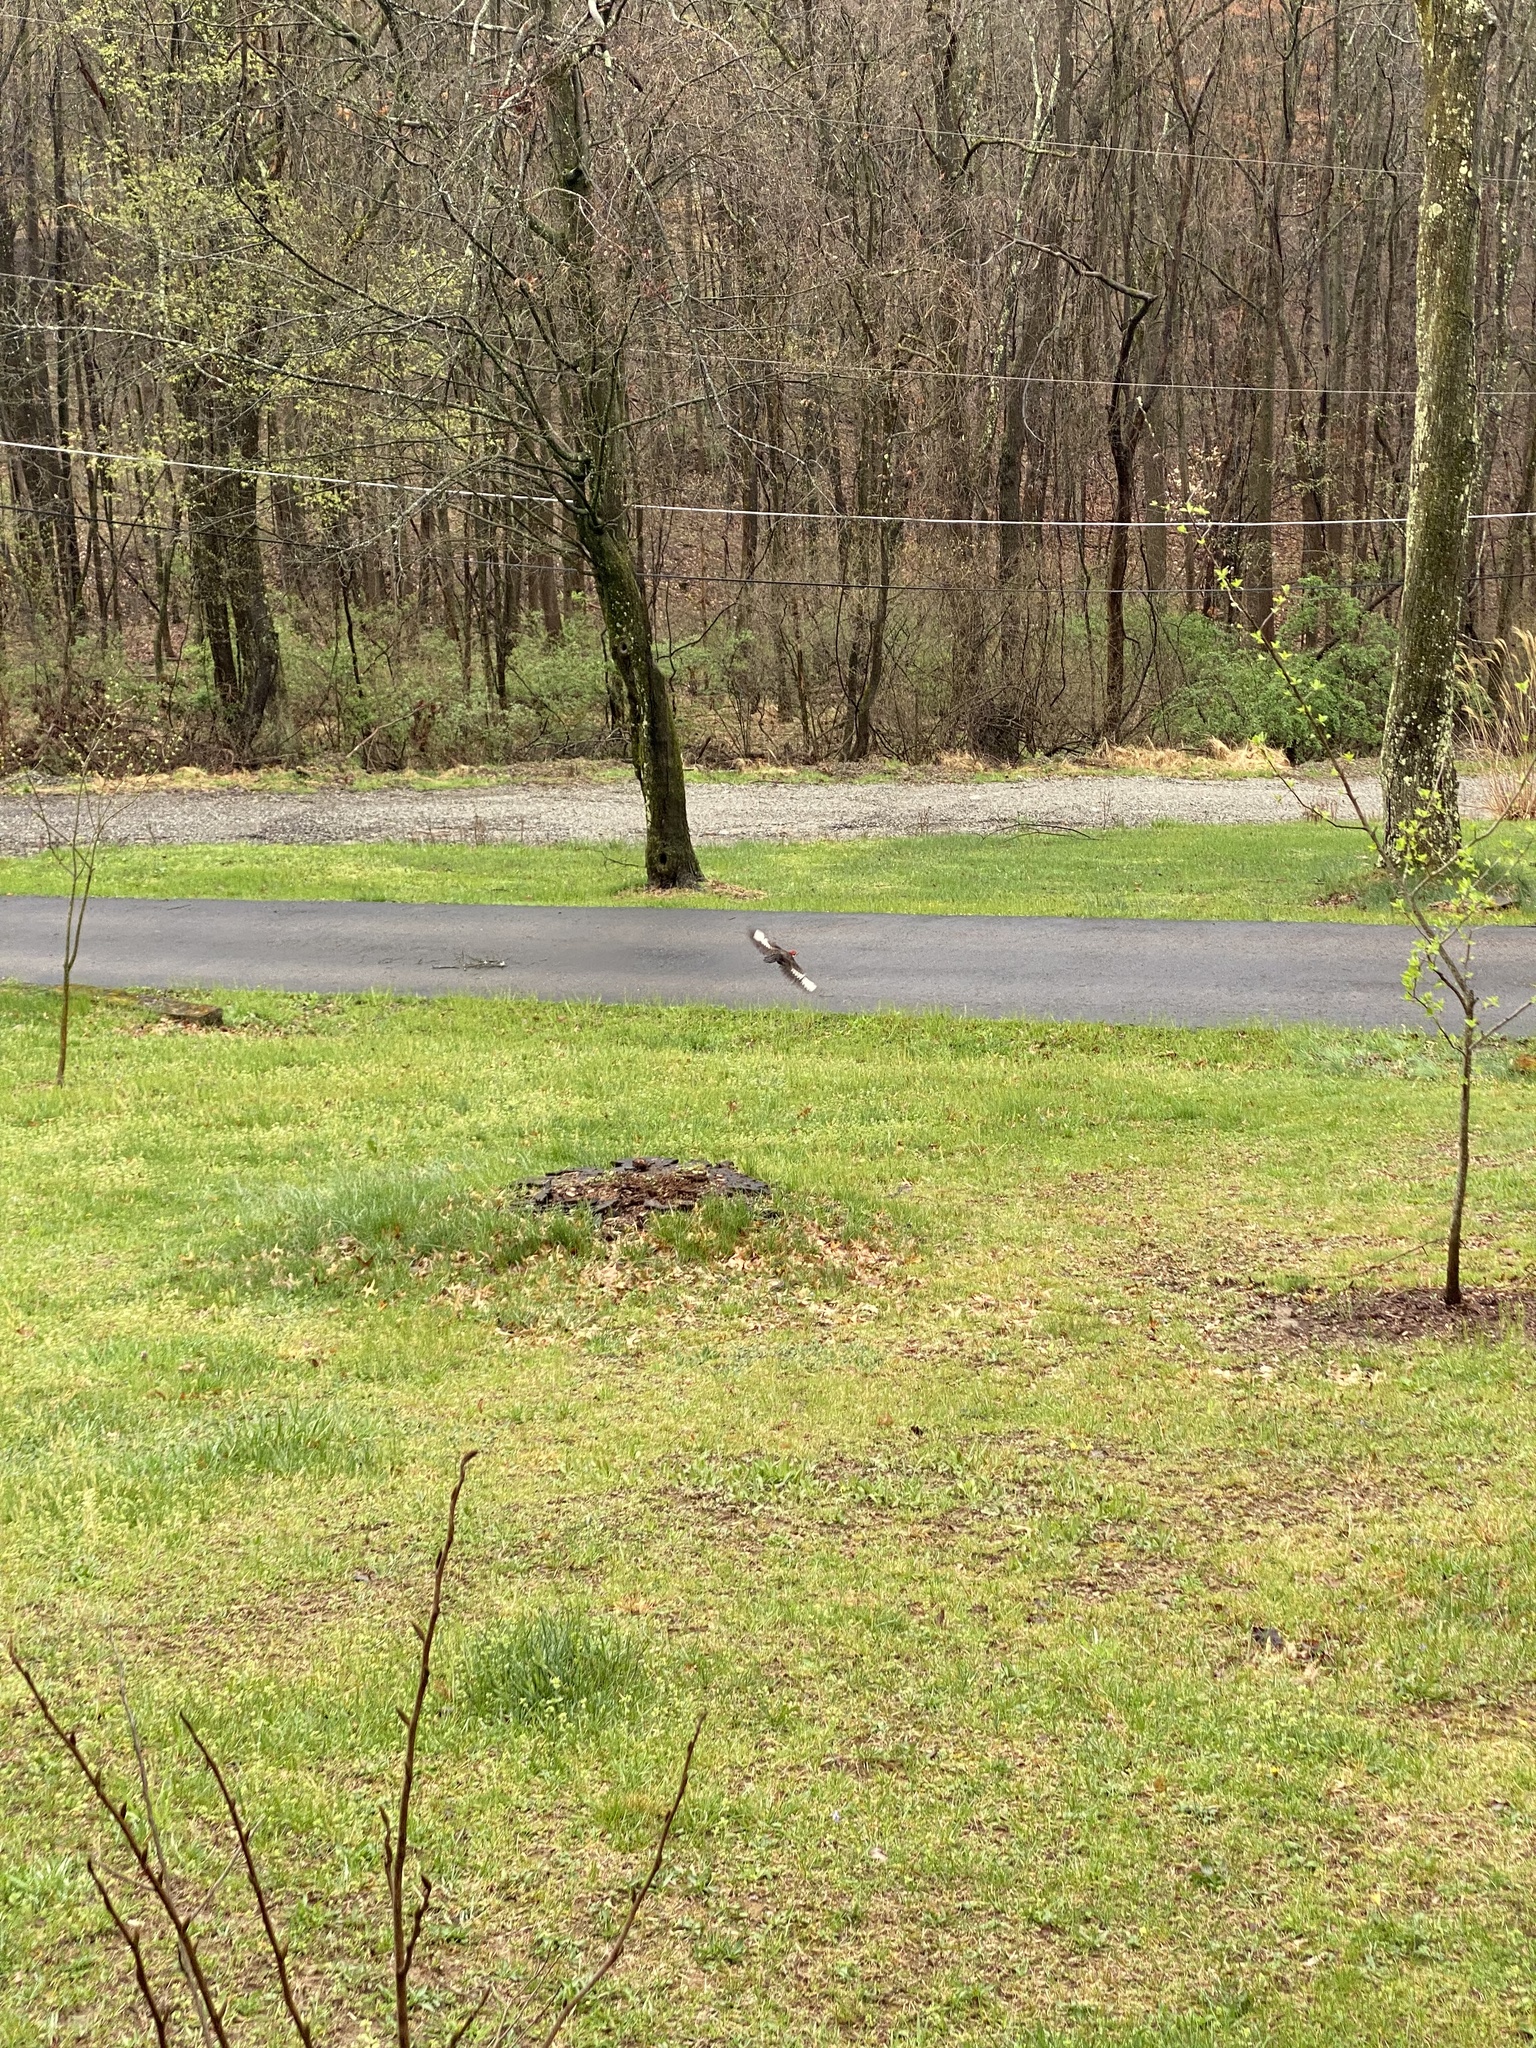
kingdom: Animalia
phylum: Chordata
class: Aves
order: Piciformes
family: Picidae
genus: Dryocopus
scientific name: Dryocopus pileatus
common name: Pileated woodpecker
